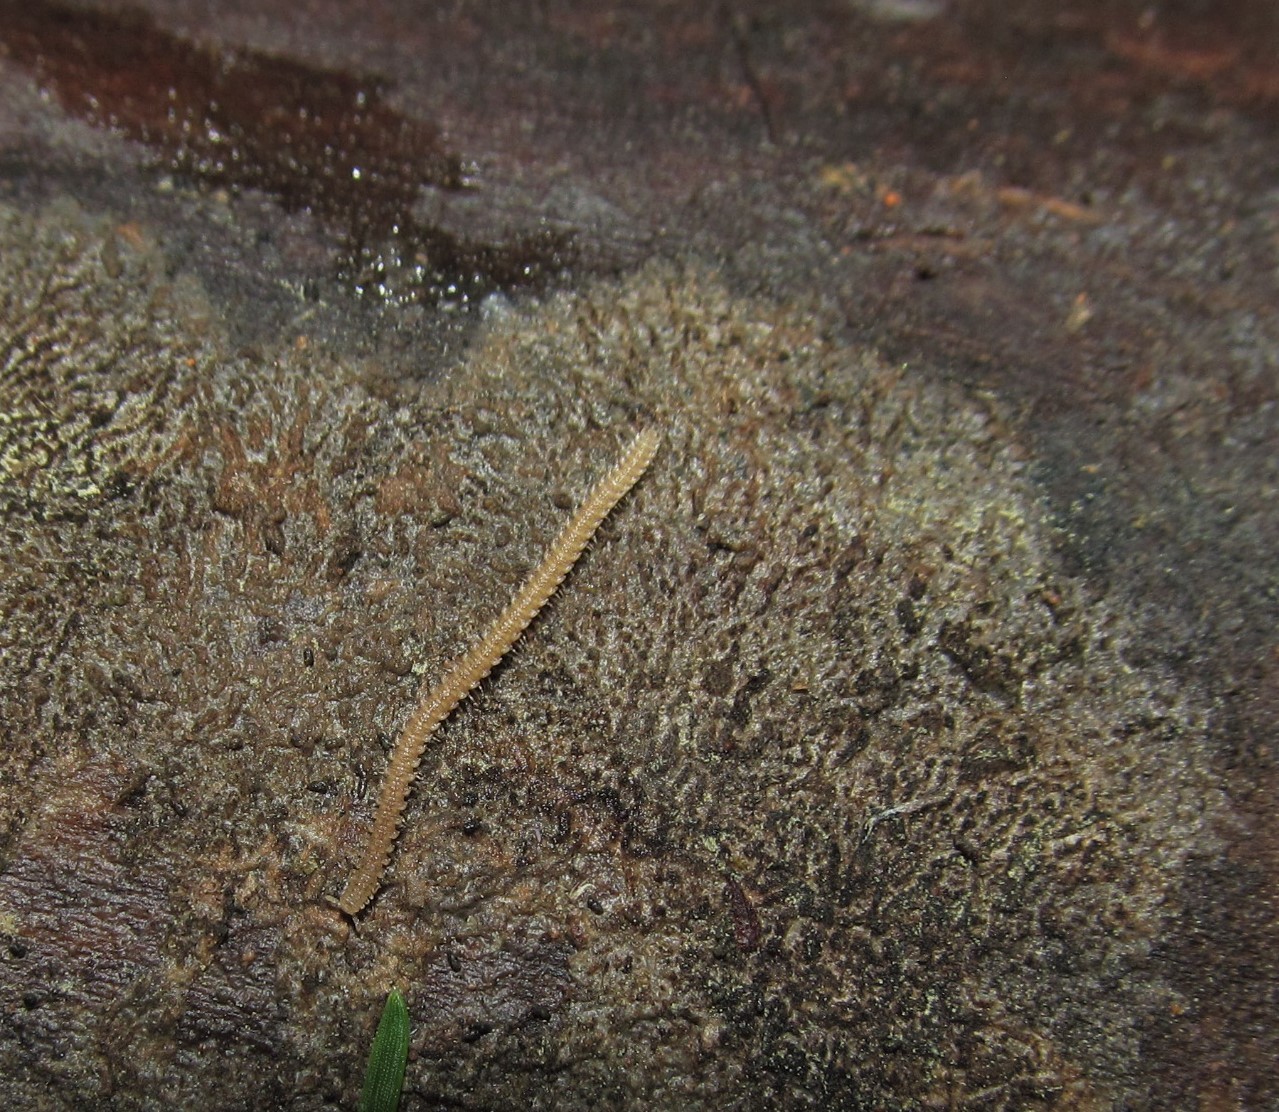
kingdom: Animalia
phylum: Arthropoda
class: Diplopoda
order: Platydesmida
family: Andrognathidae
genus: Andrognathus
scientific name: Andrognathus corticarius
